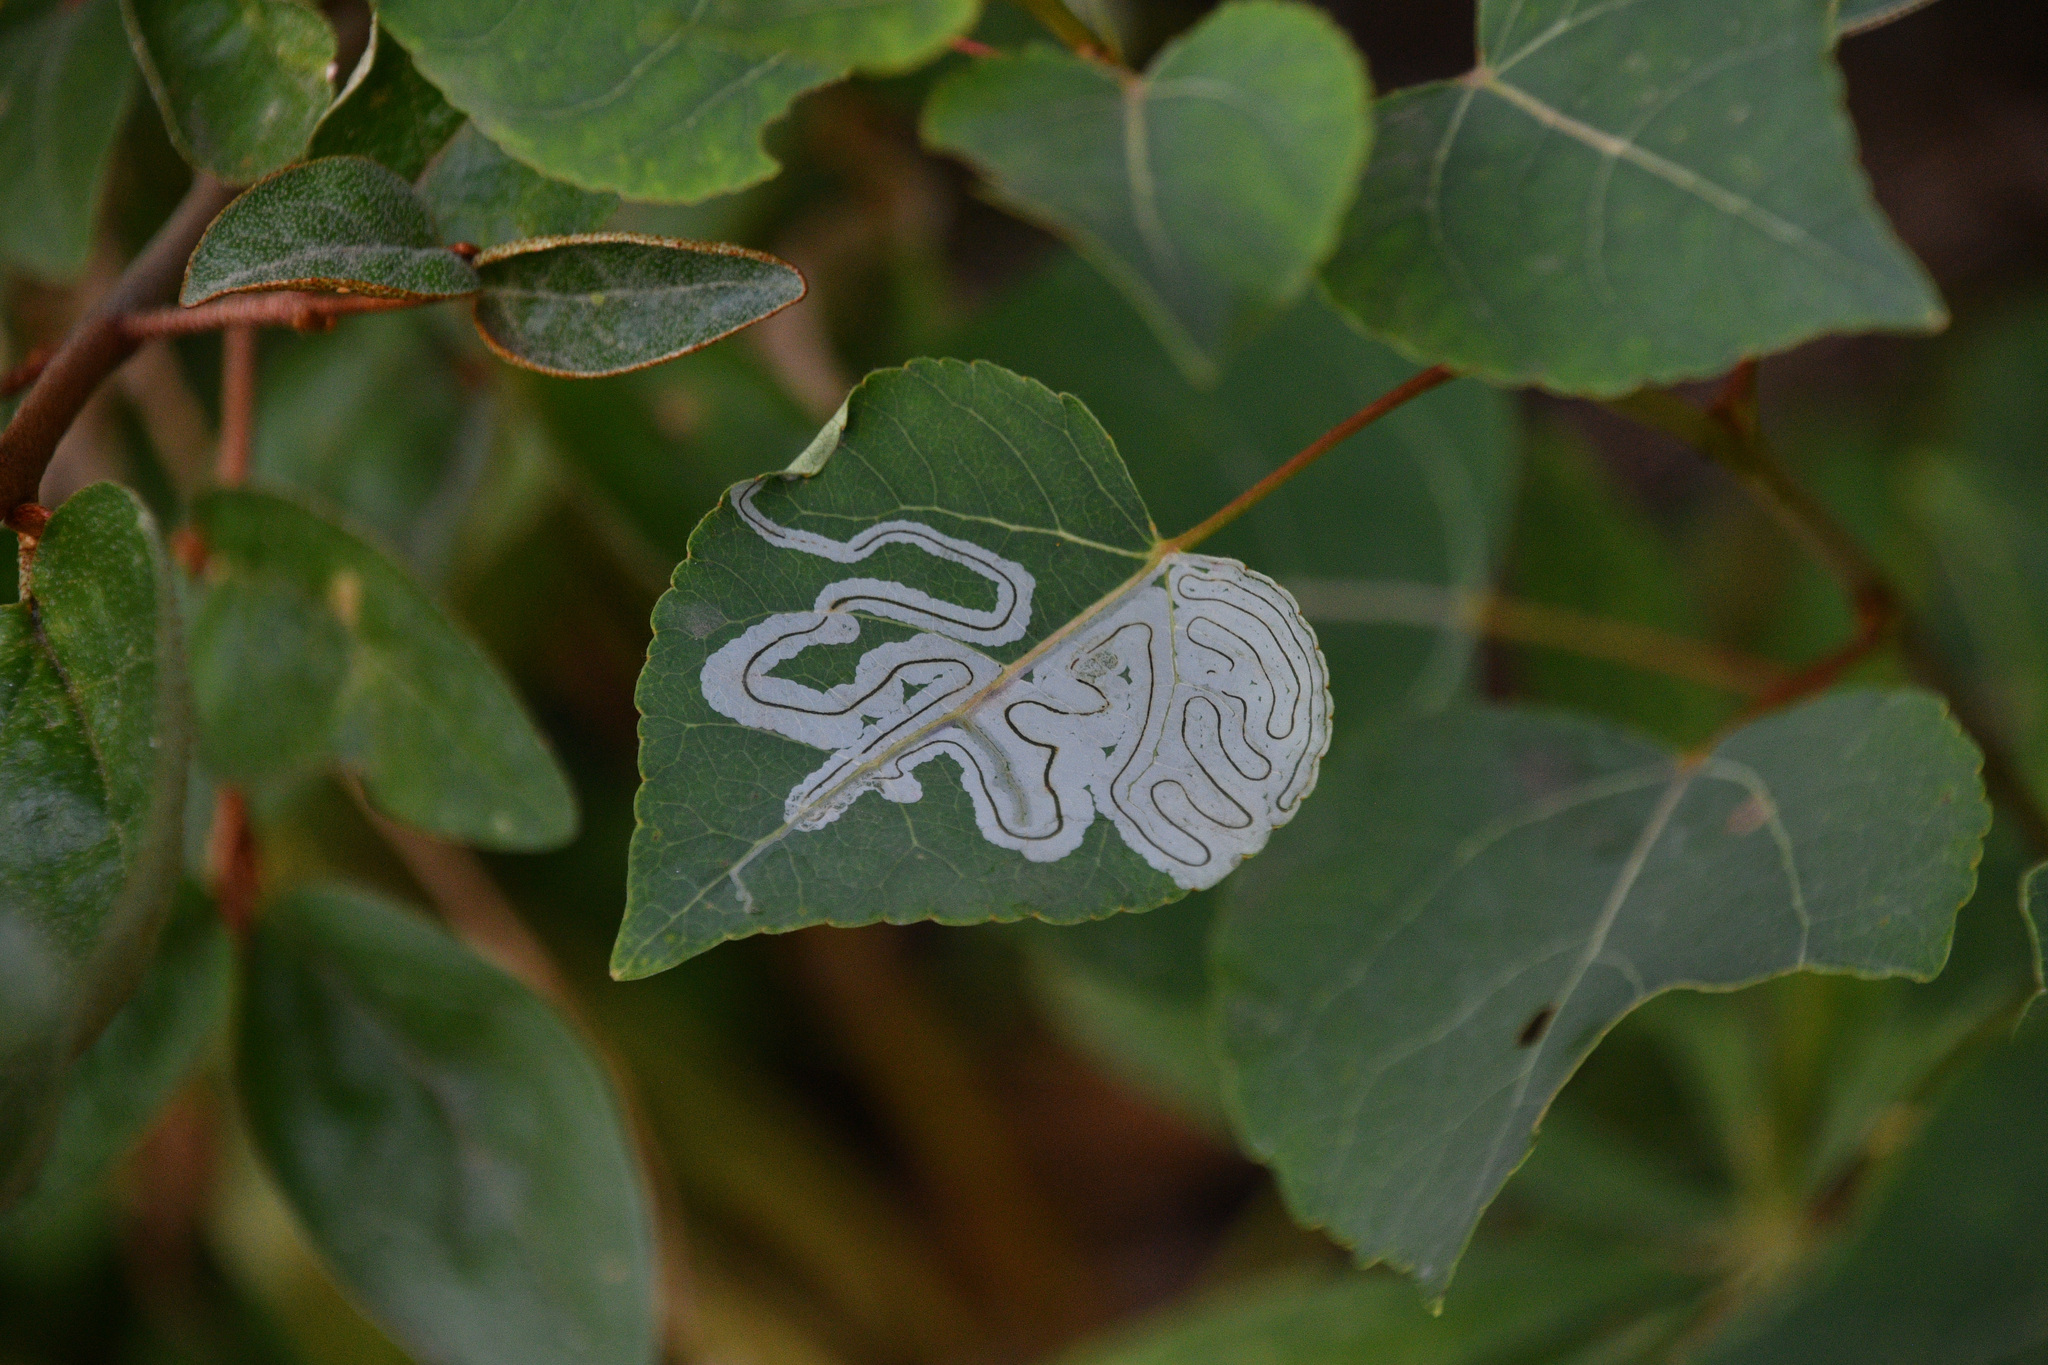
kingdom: Animalia
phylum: Arthropoda
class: Insecta
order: Lepidoptera
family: Gracillariidae
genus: Phyllocnistis
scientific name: Phyllocnistis populiella
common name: Aspen serpentine leafminer moth
